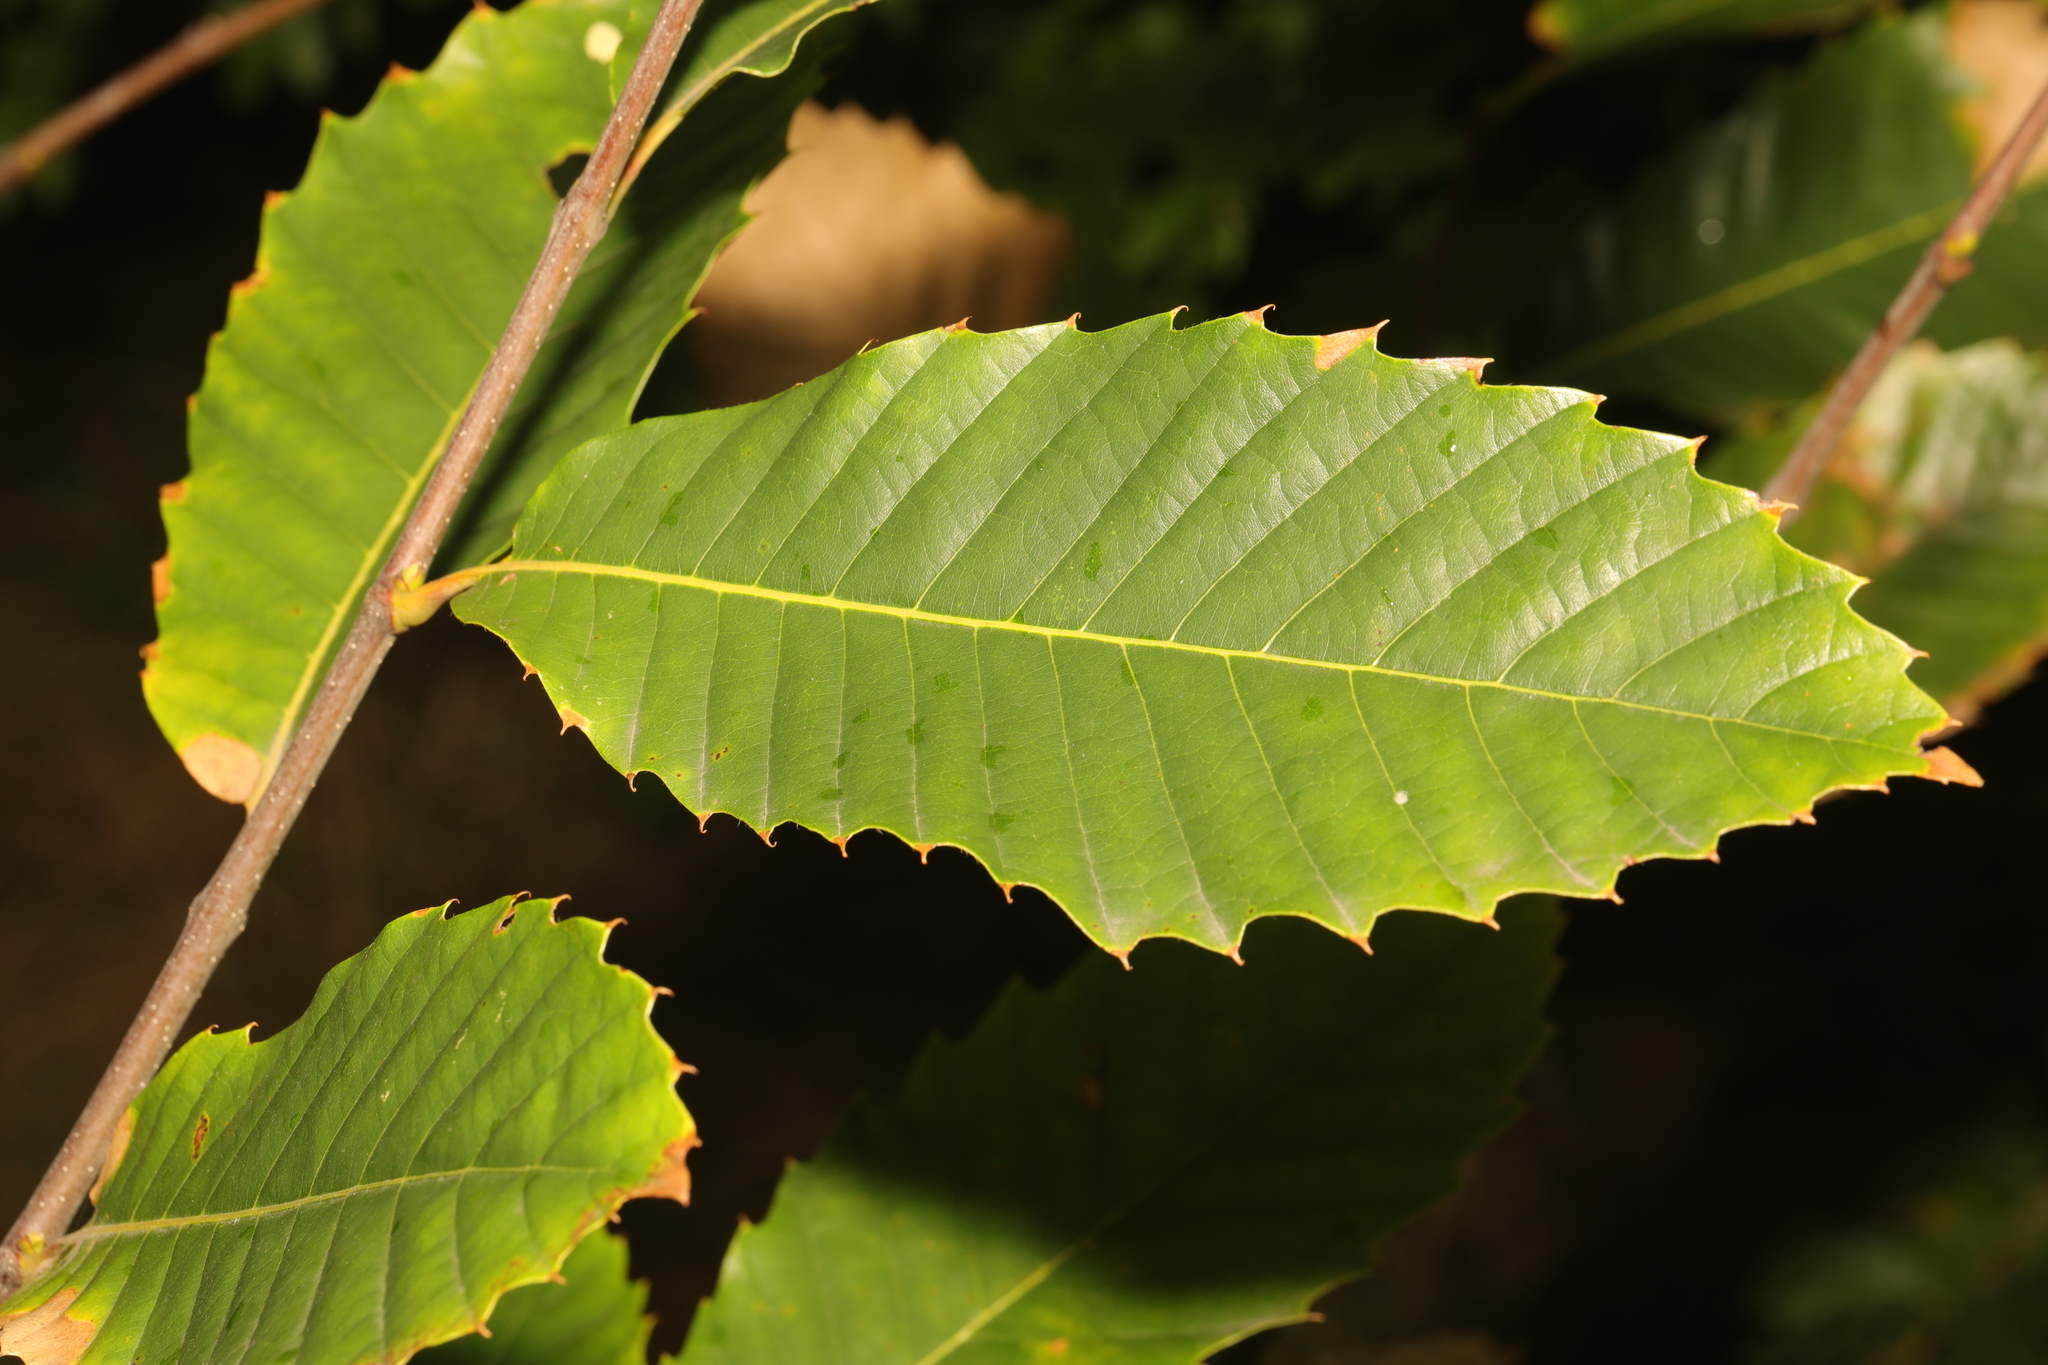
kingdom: Plantae
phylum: Tracheophyta
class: Magnoliopsida
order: Fagales
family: Fagaceae
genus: Castanea
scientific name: Castanea sativa
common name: Sweet chestnut
